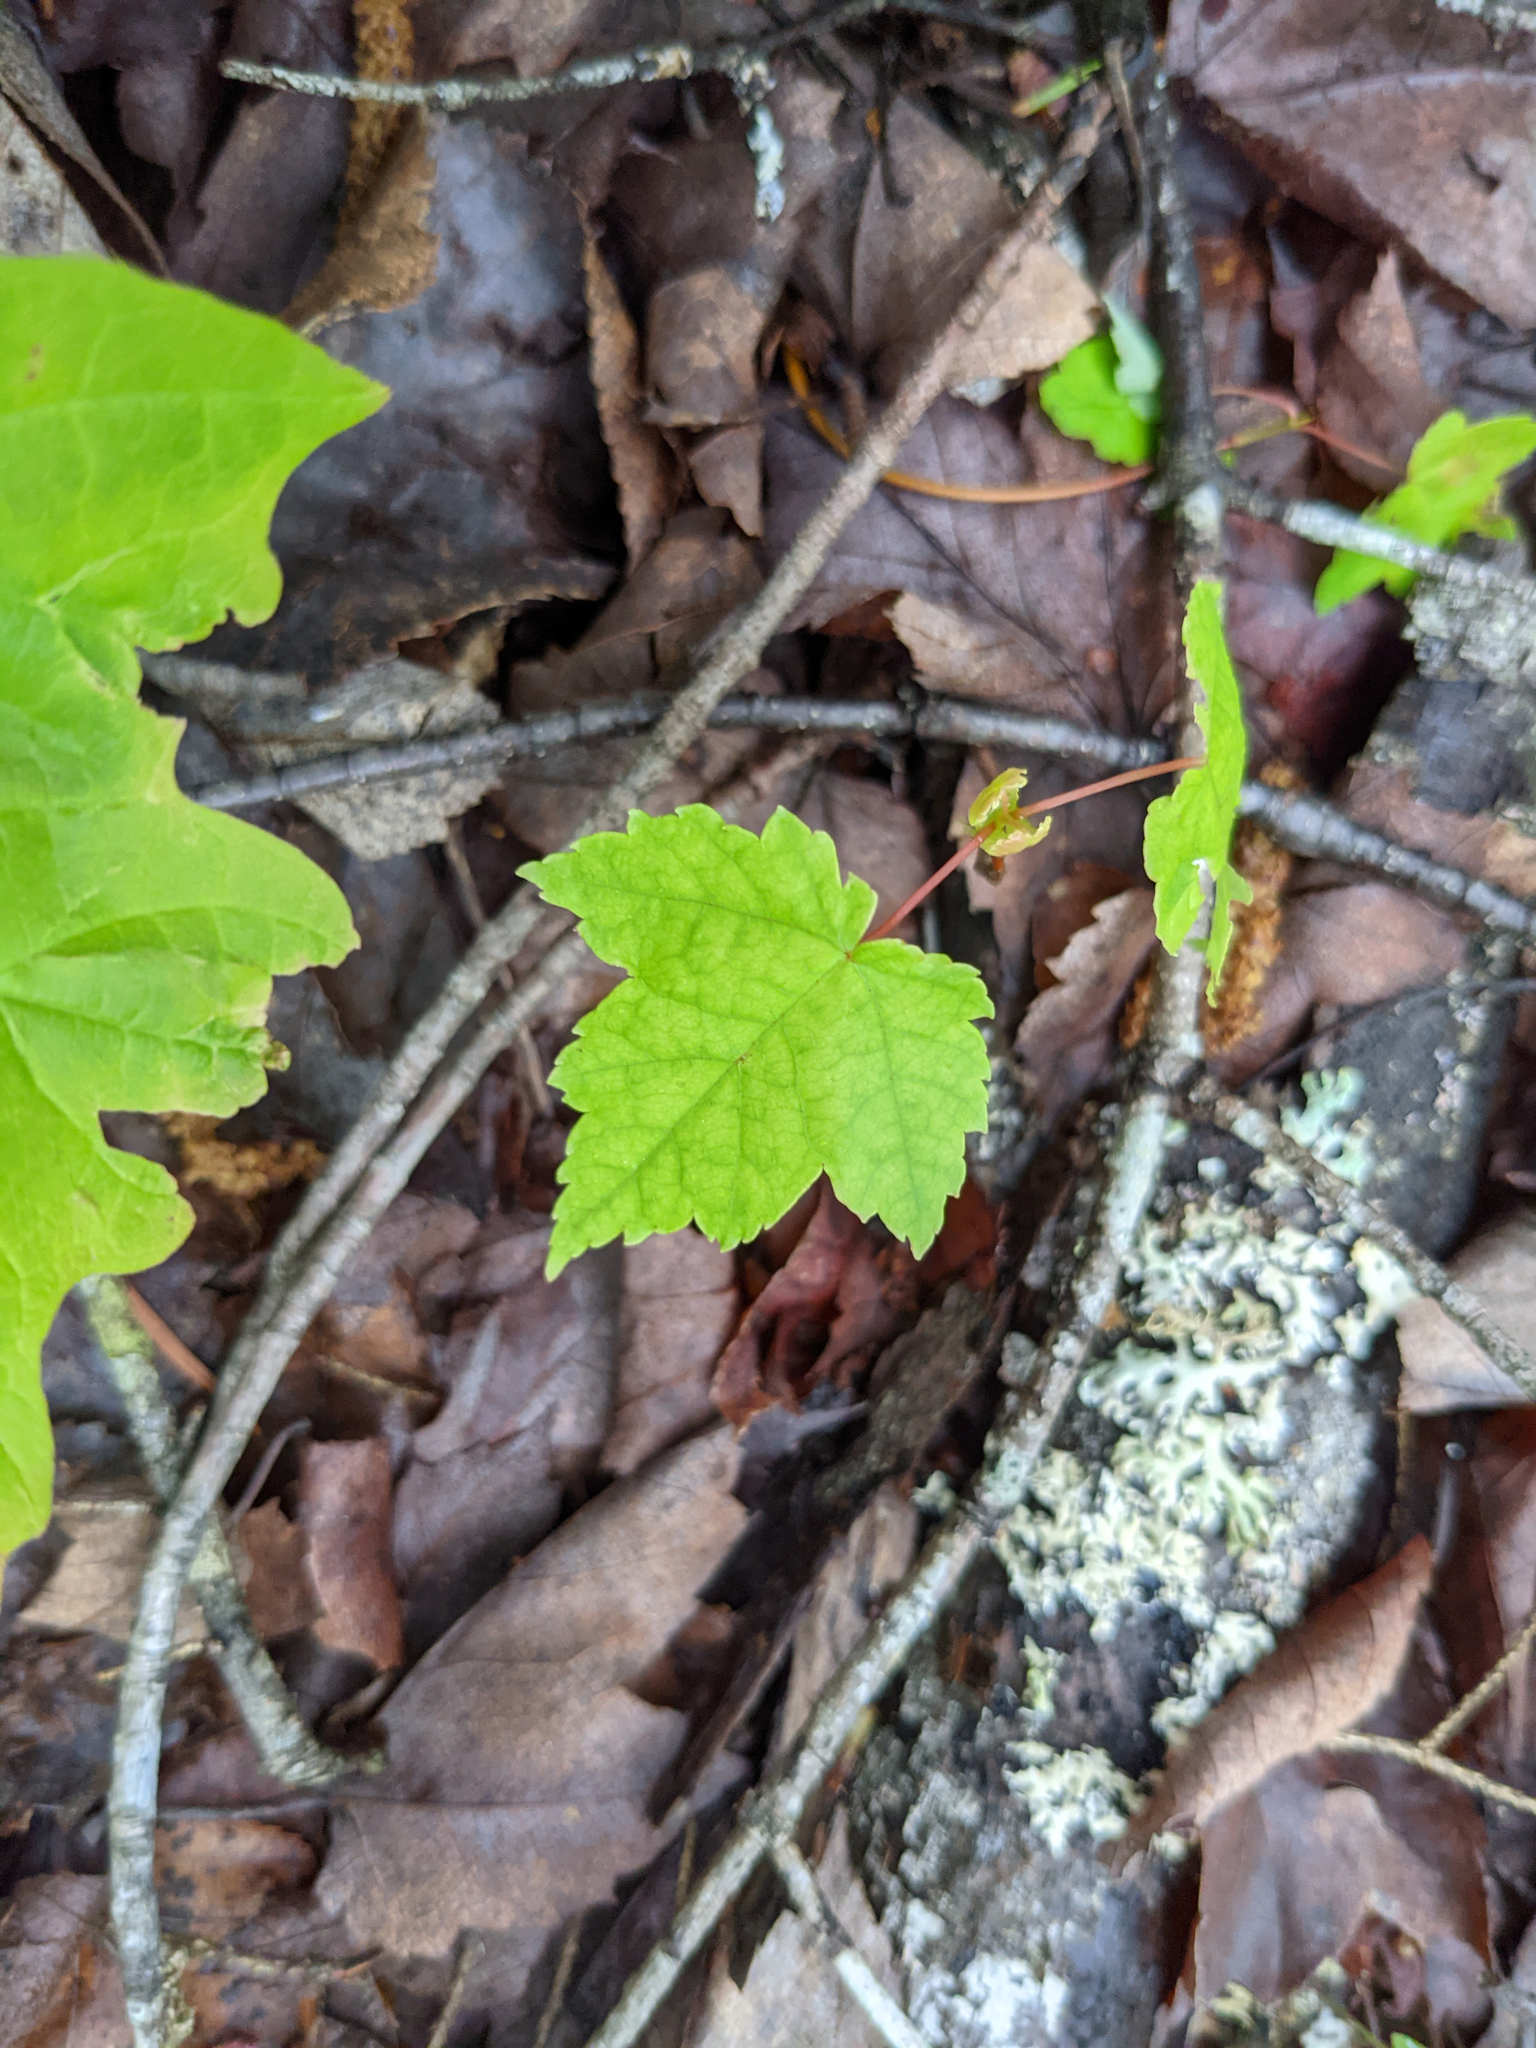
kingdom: Plantae
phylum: Tracheophyta
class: Magnoliopsida
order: Sapindales
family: Sapindaceae
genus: Acer
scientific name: Acer rubrum
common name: Red maple
